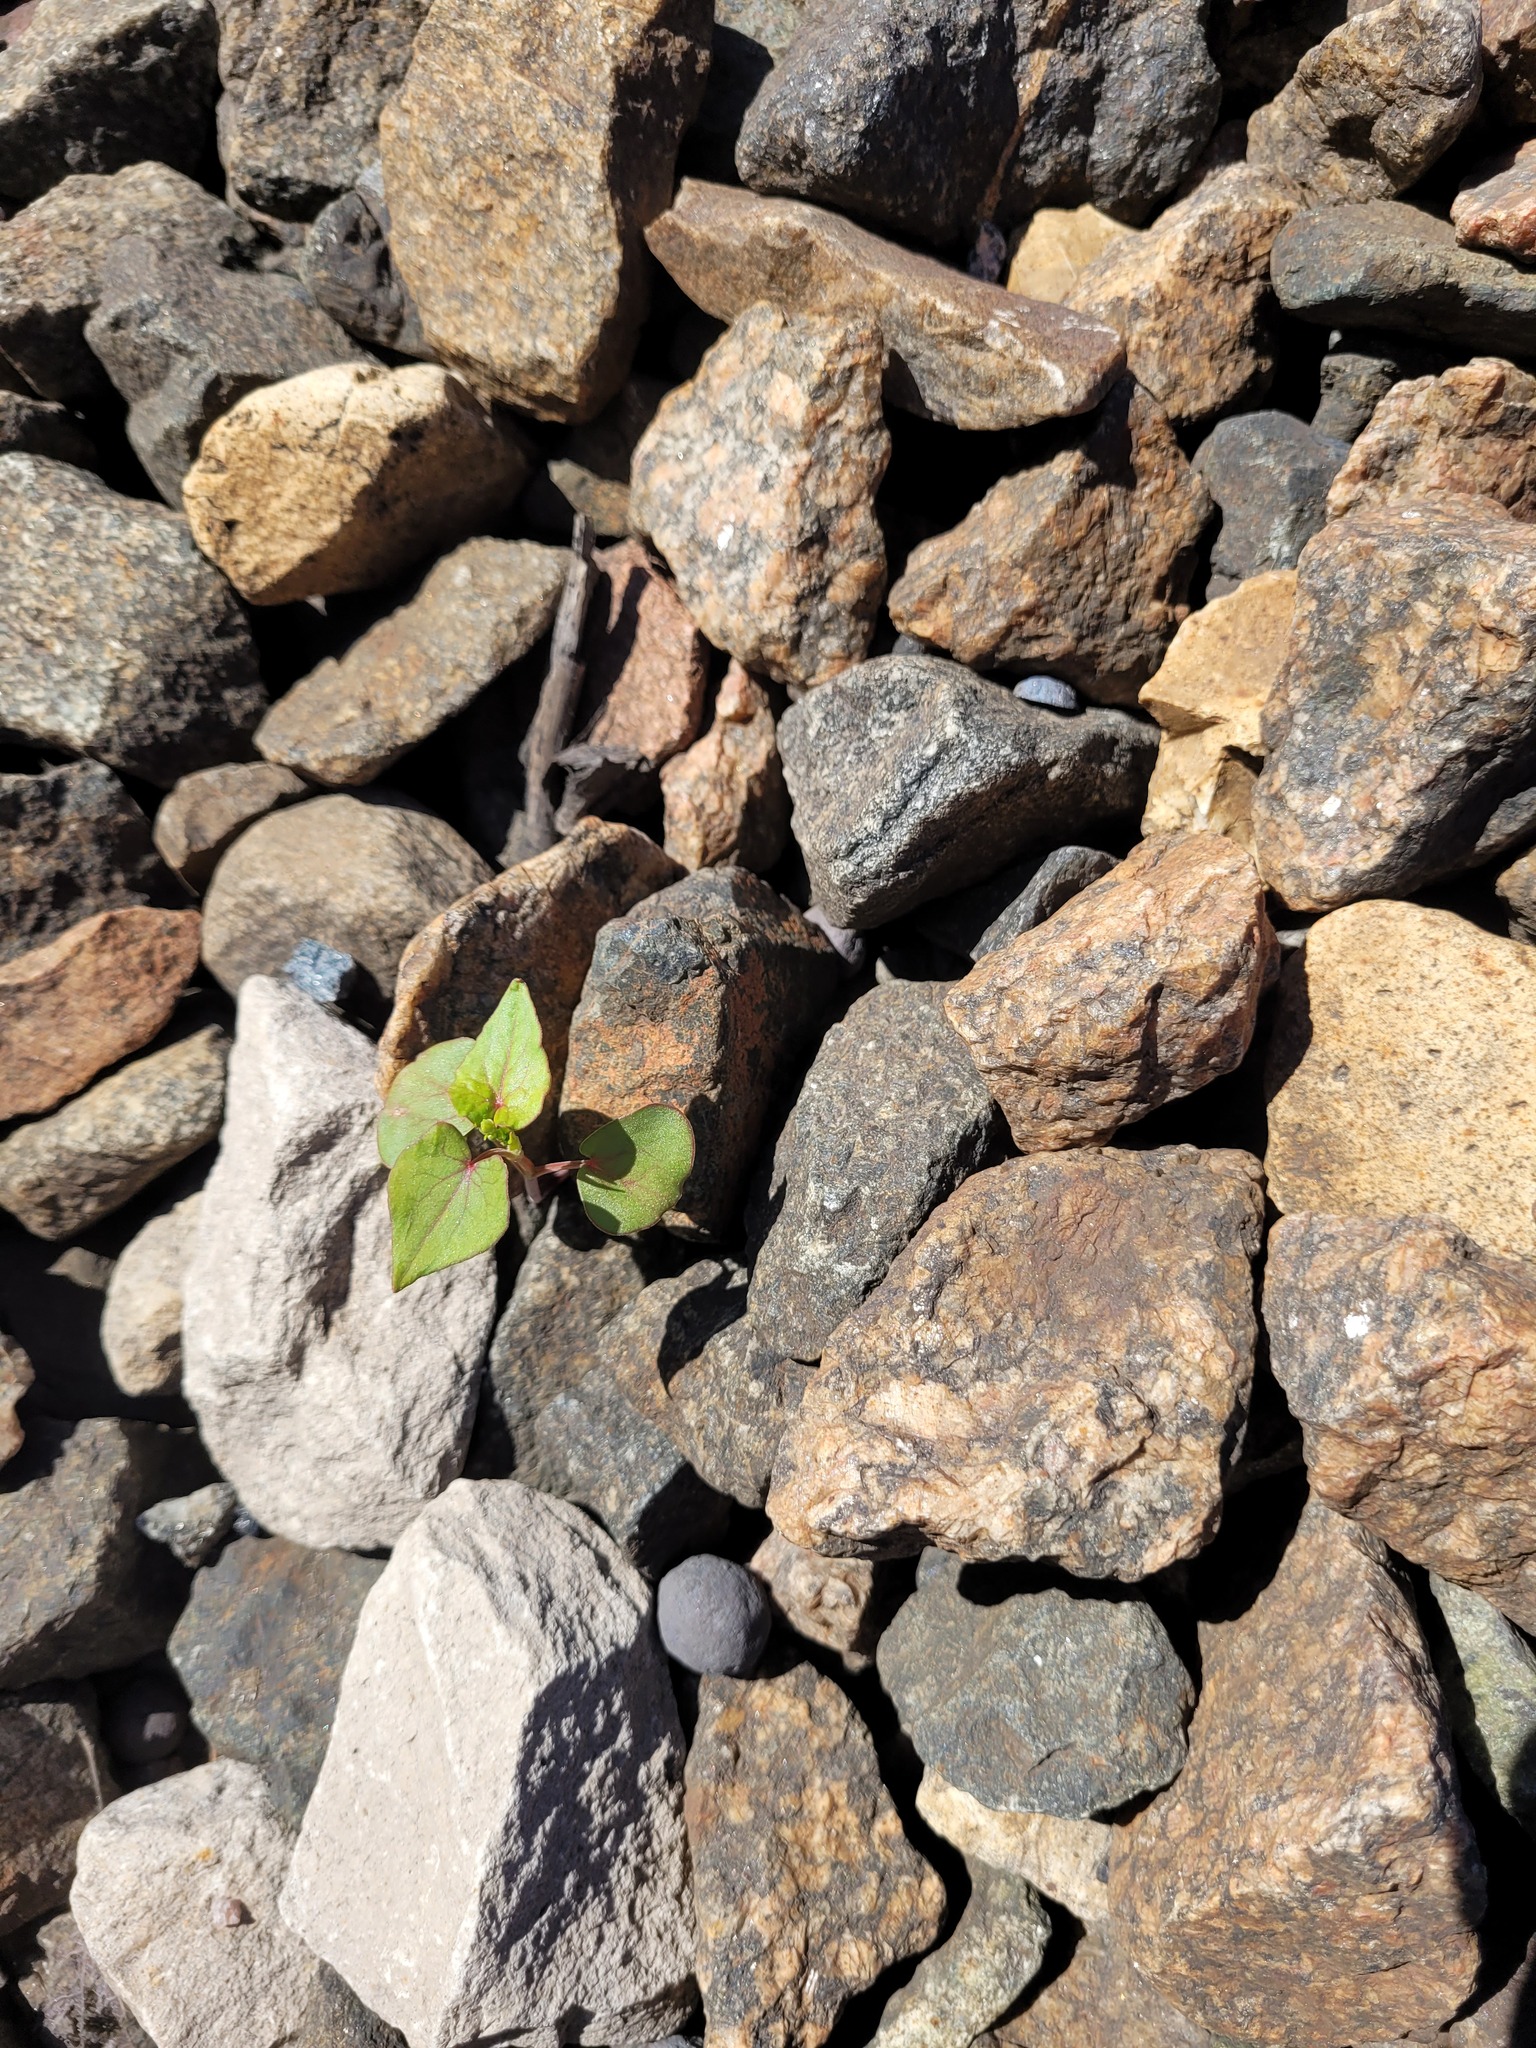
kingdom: Plantae
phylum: Tracheophyta
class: Magnoliopsida
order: Caryophyllales
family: Polygonaceae
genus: Fagopyrum
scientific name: Fagopyrum esculentum
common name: Buckwheat
